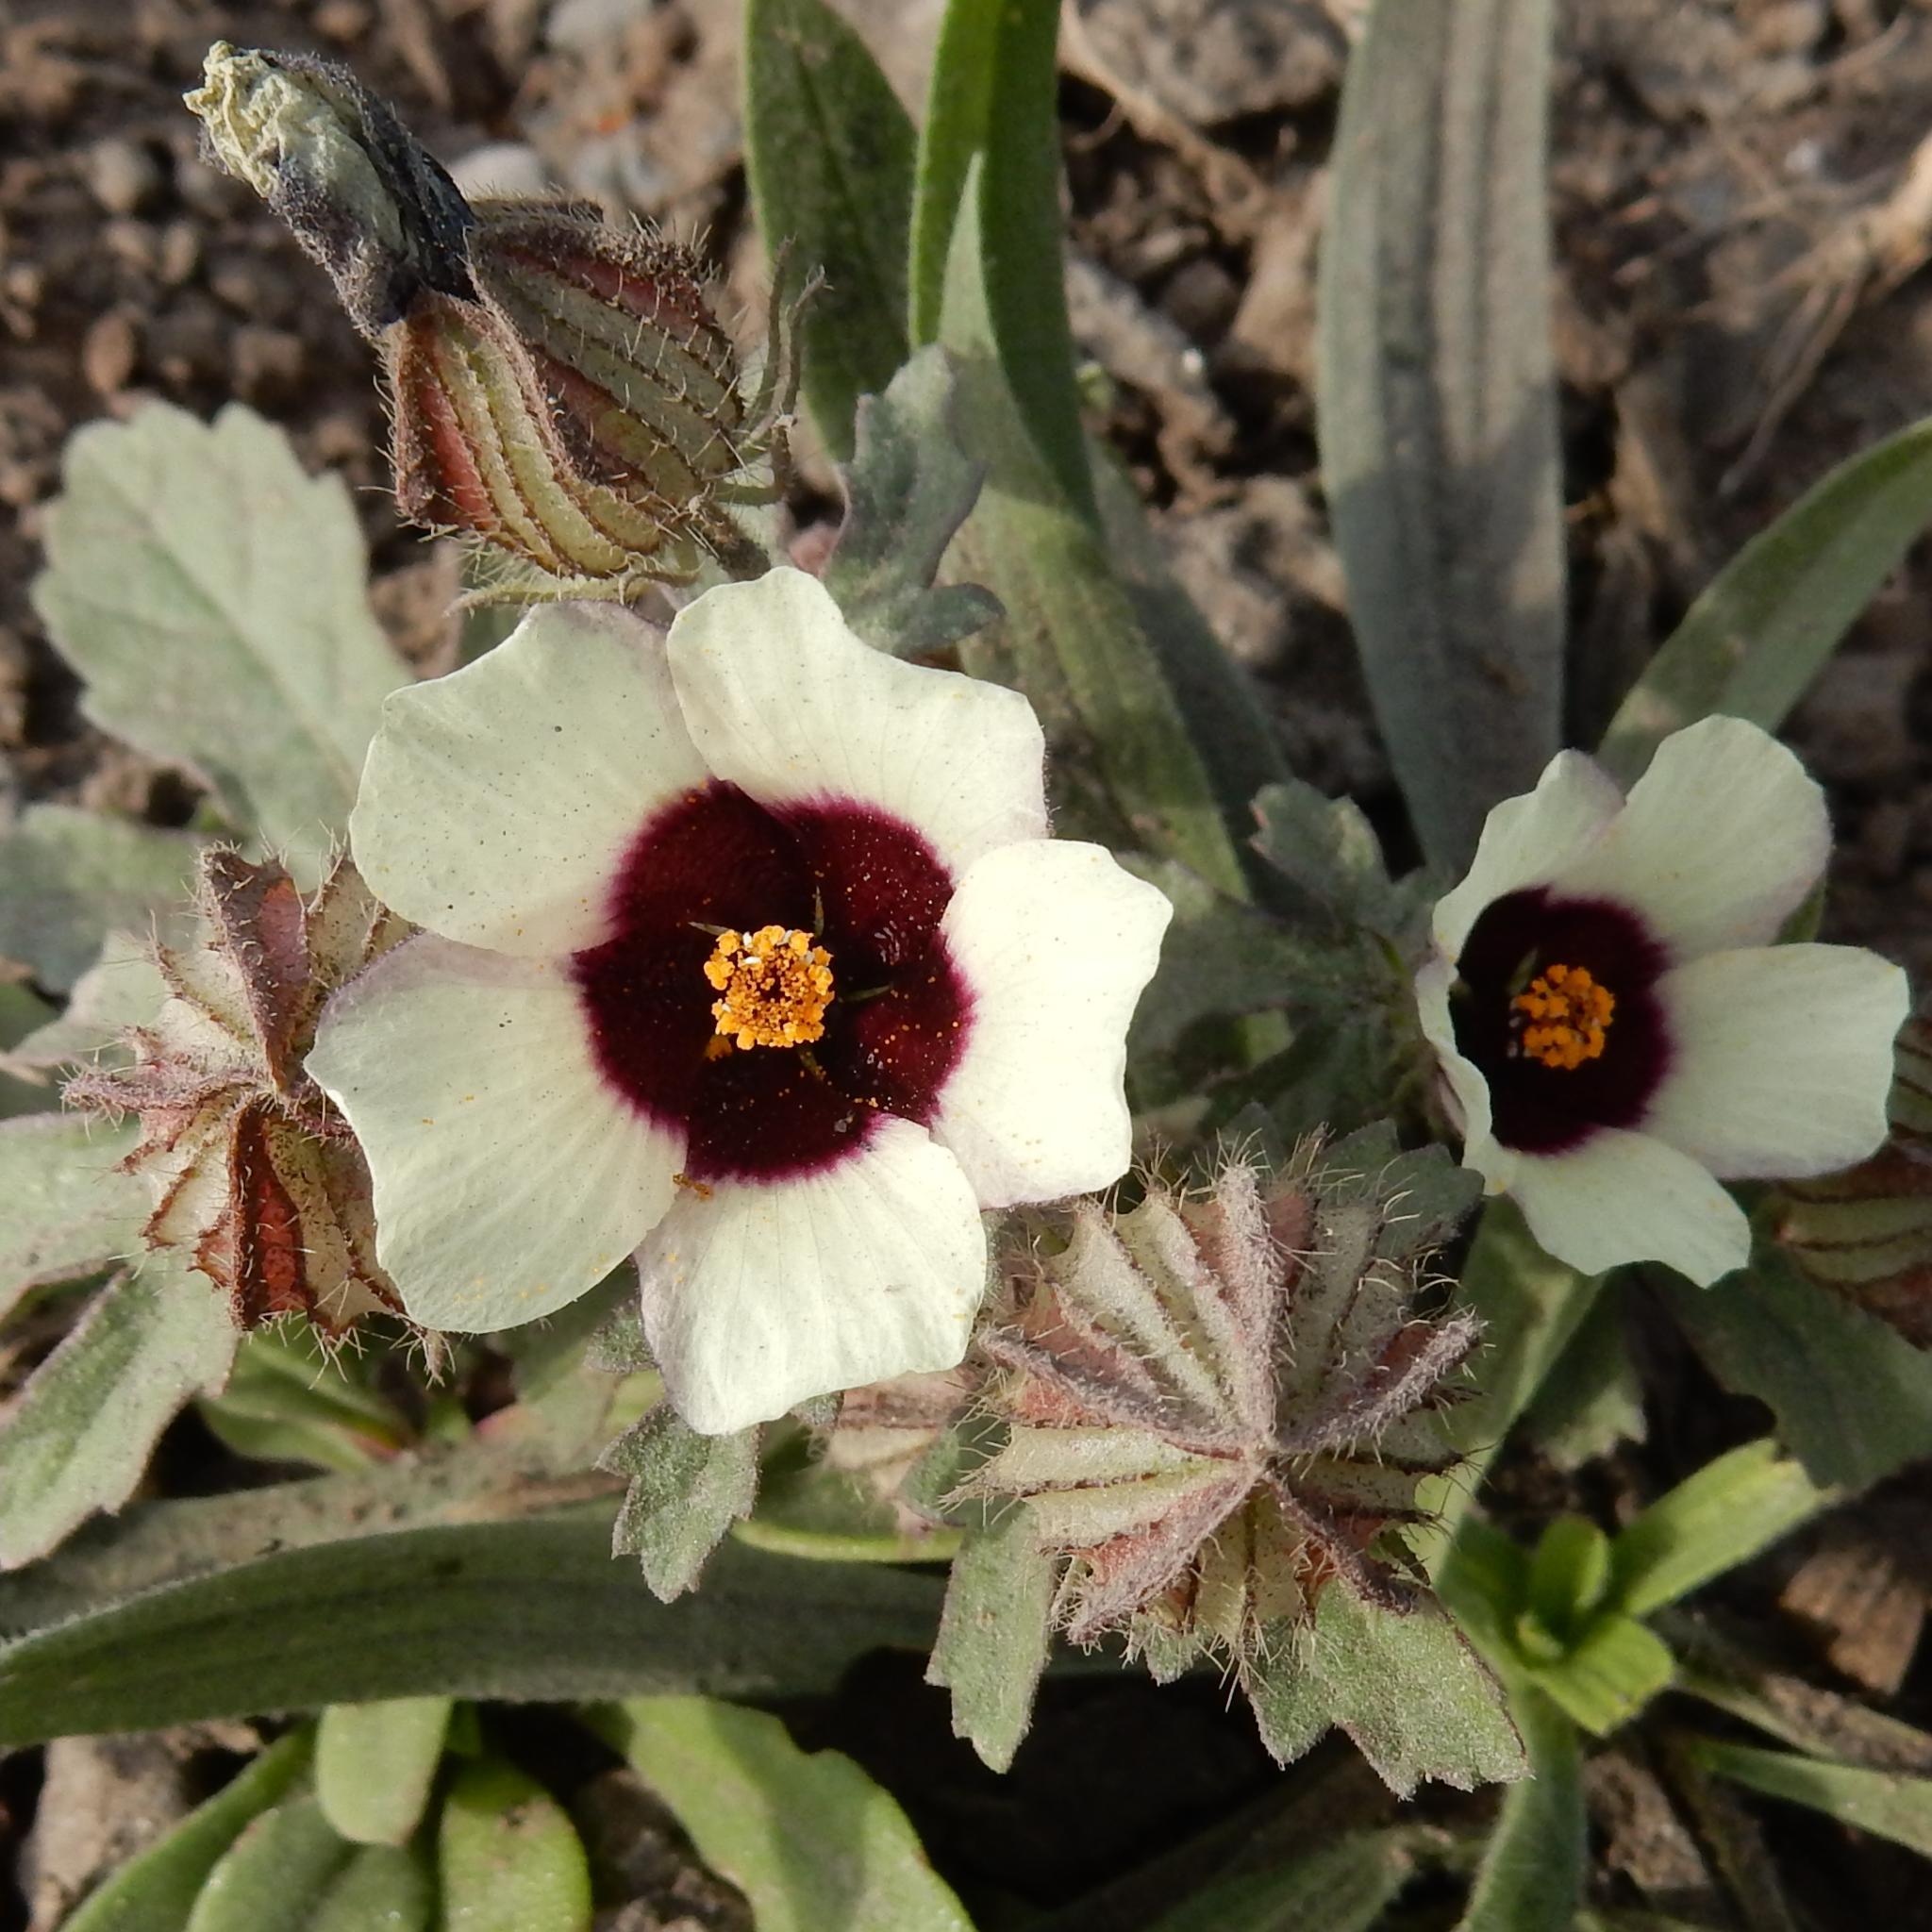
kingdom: Plantae
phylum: Tracheophyta
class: Magnoliopsida
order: Malvales
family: Malvaceae
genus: Hibiscus
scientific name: Hibiscus trionum
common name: Bladder ketmia
